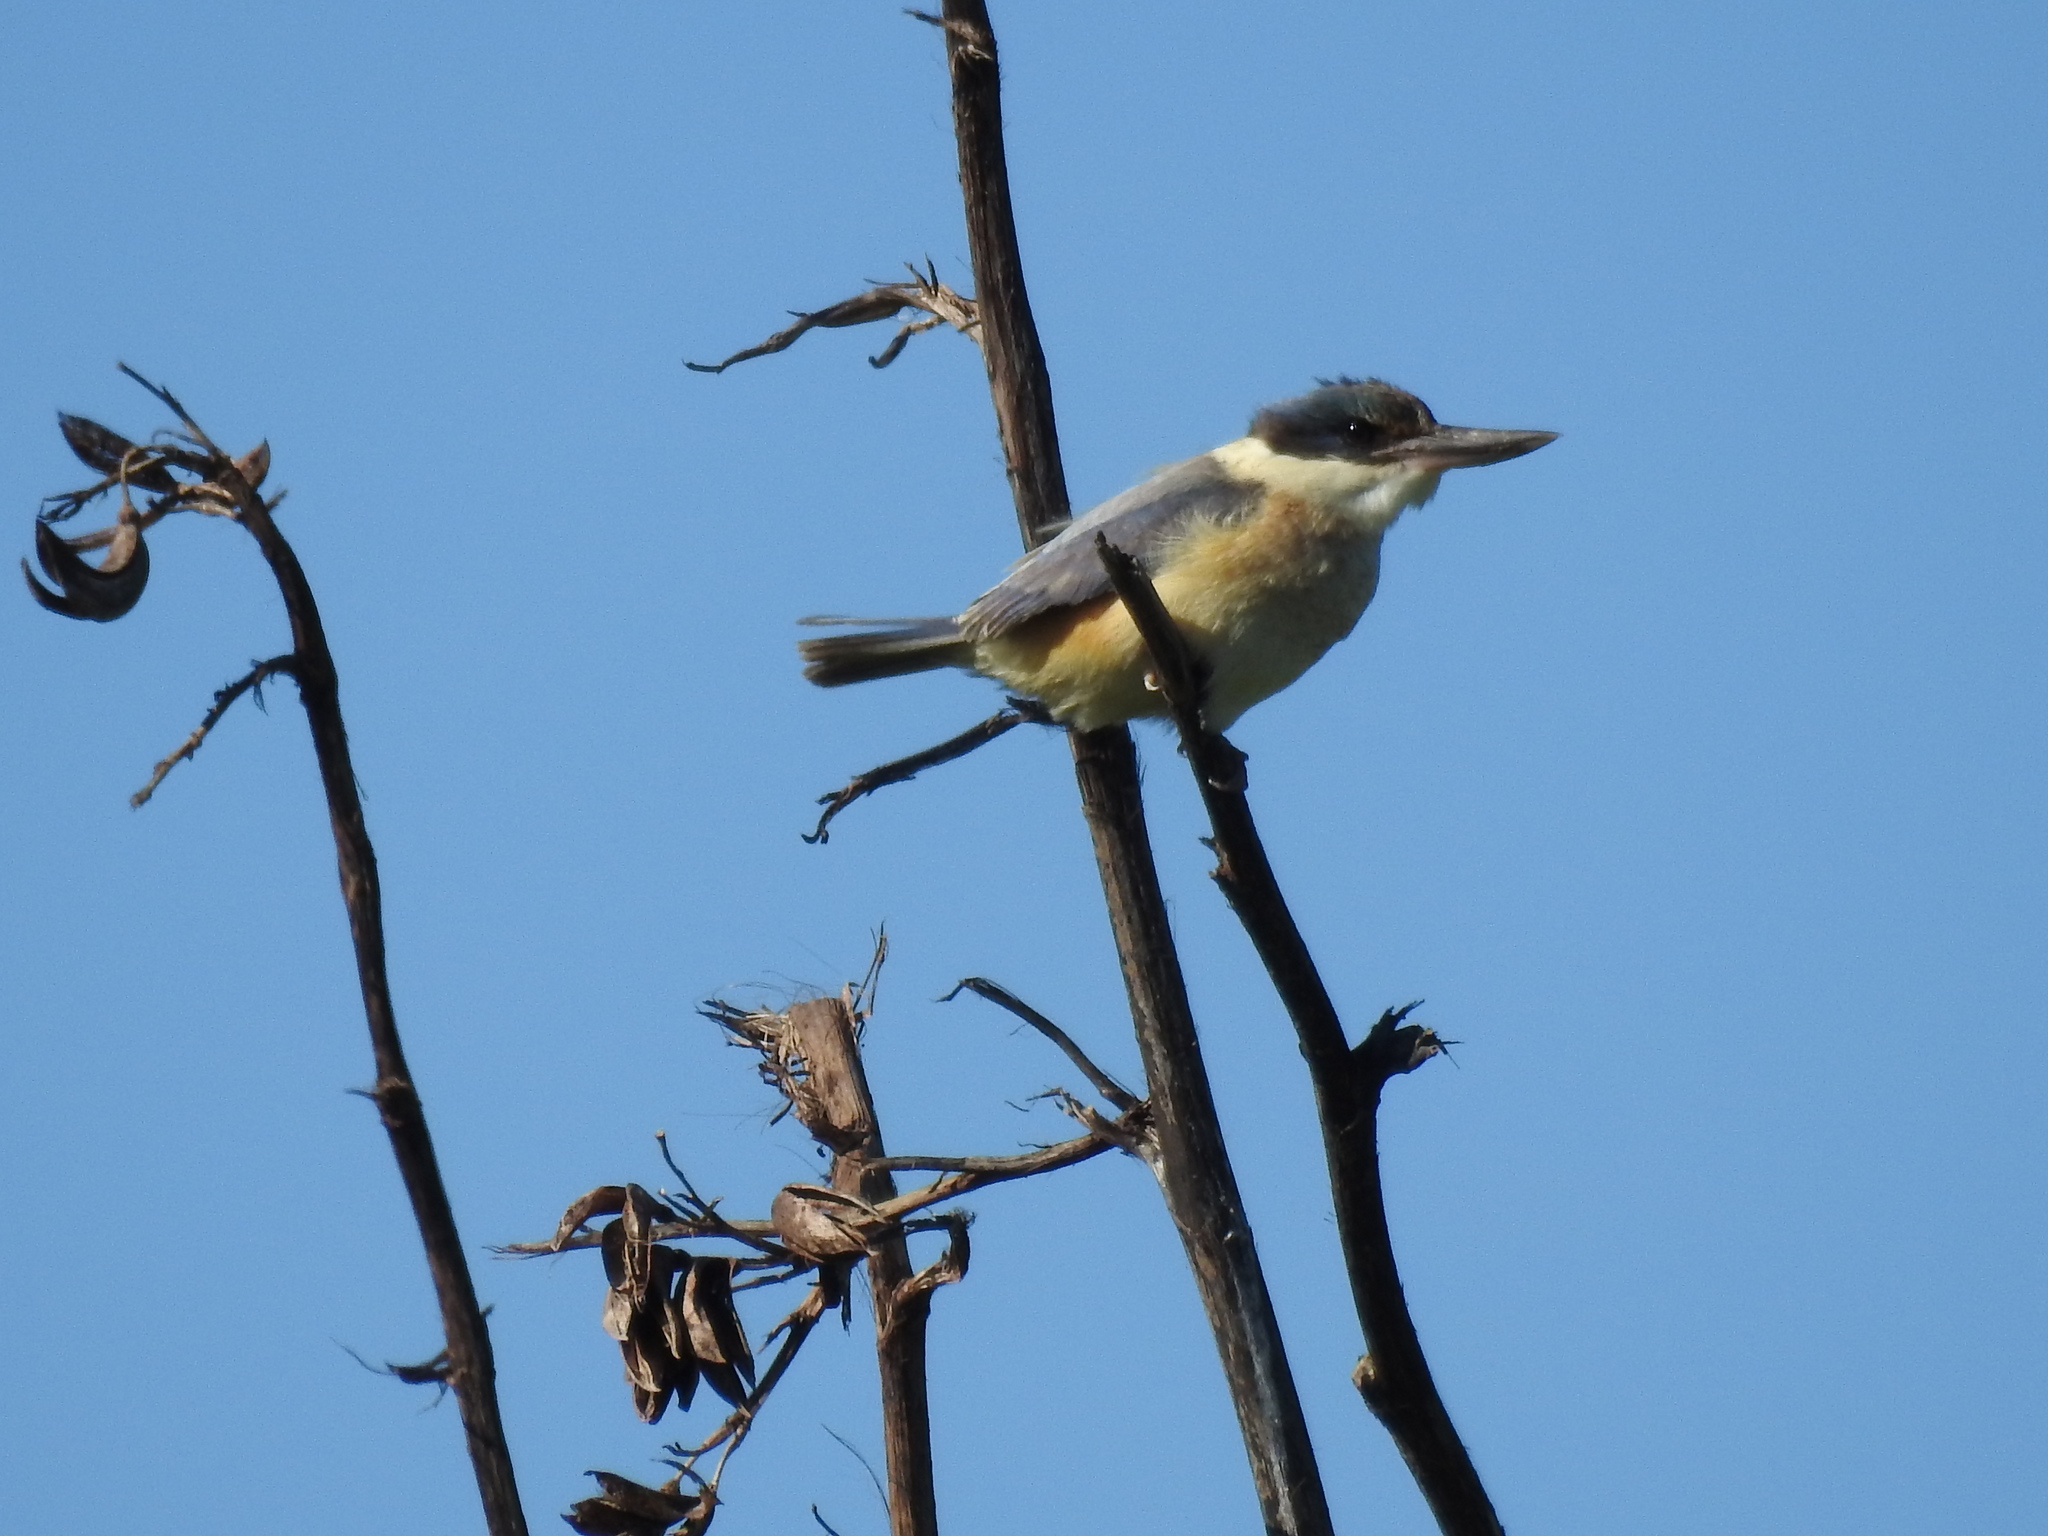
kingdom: Animalia
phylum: Chordata
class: Aves
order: Coraciiformes
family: Alcedinidae
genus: Todiramphus
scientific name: Todiramphus sanctus
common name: Sacred kingfisher
